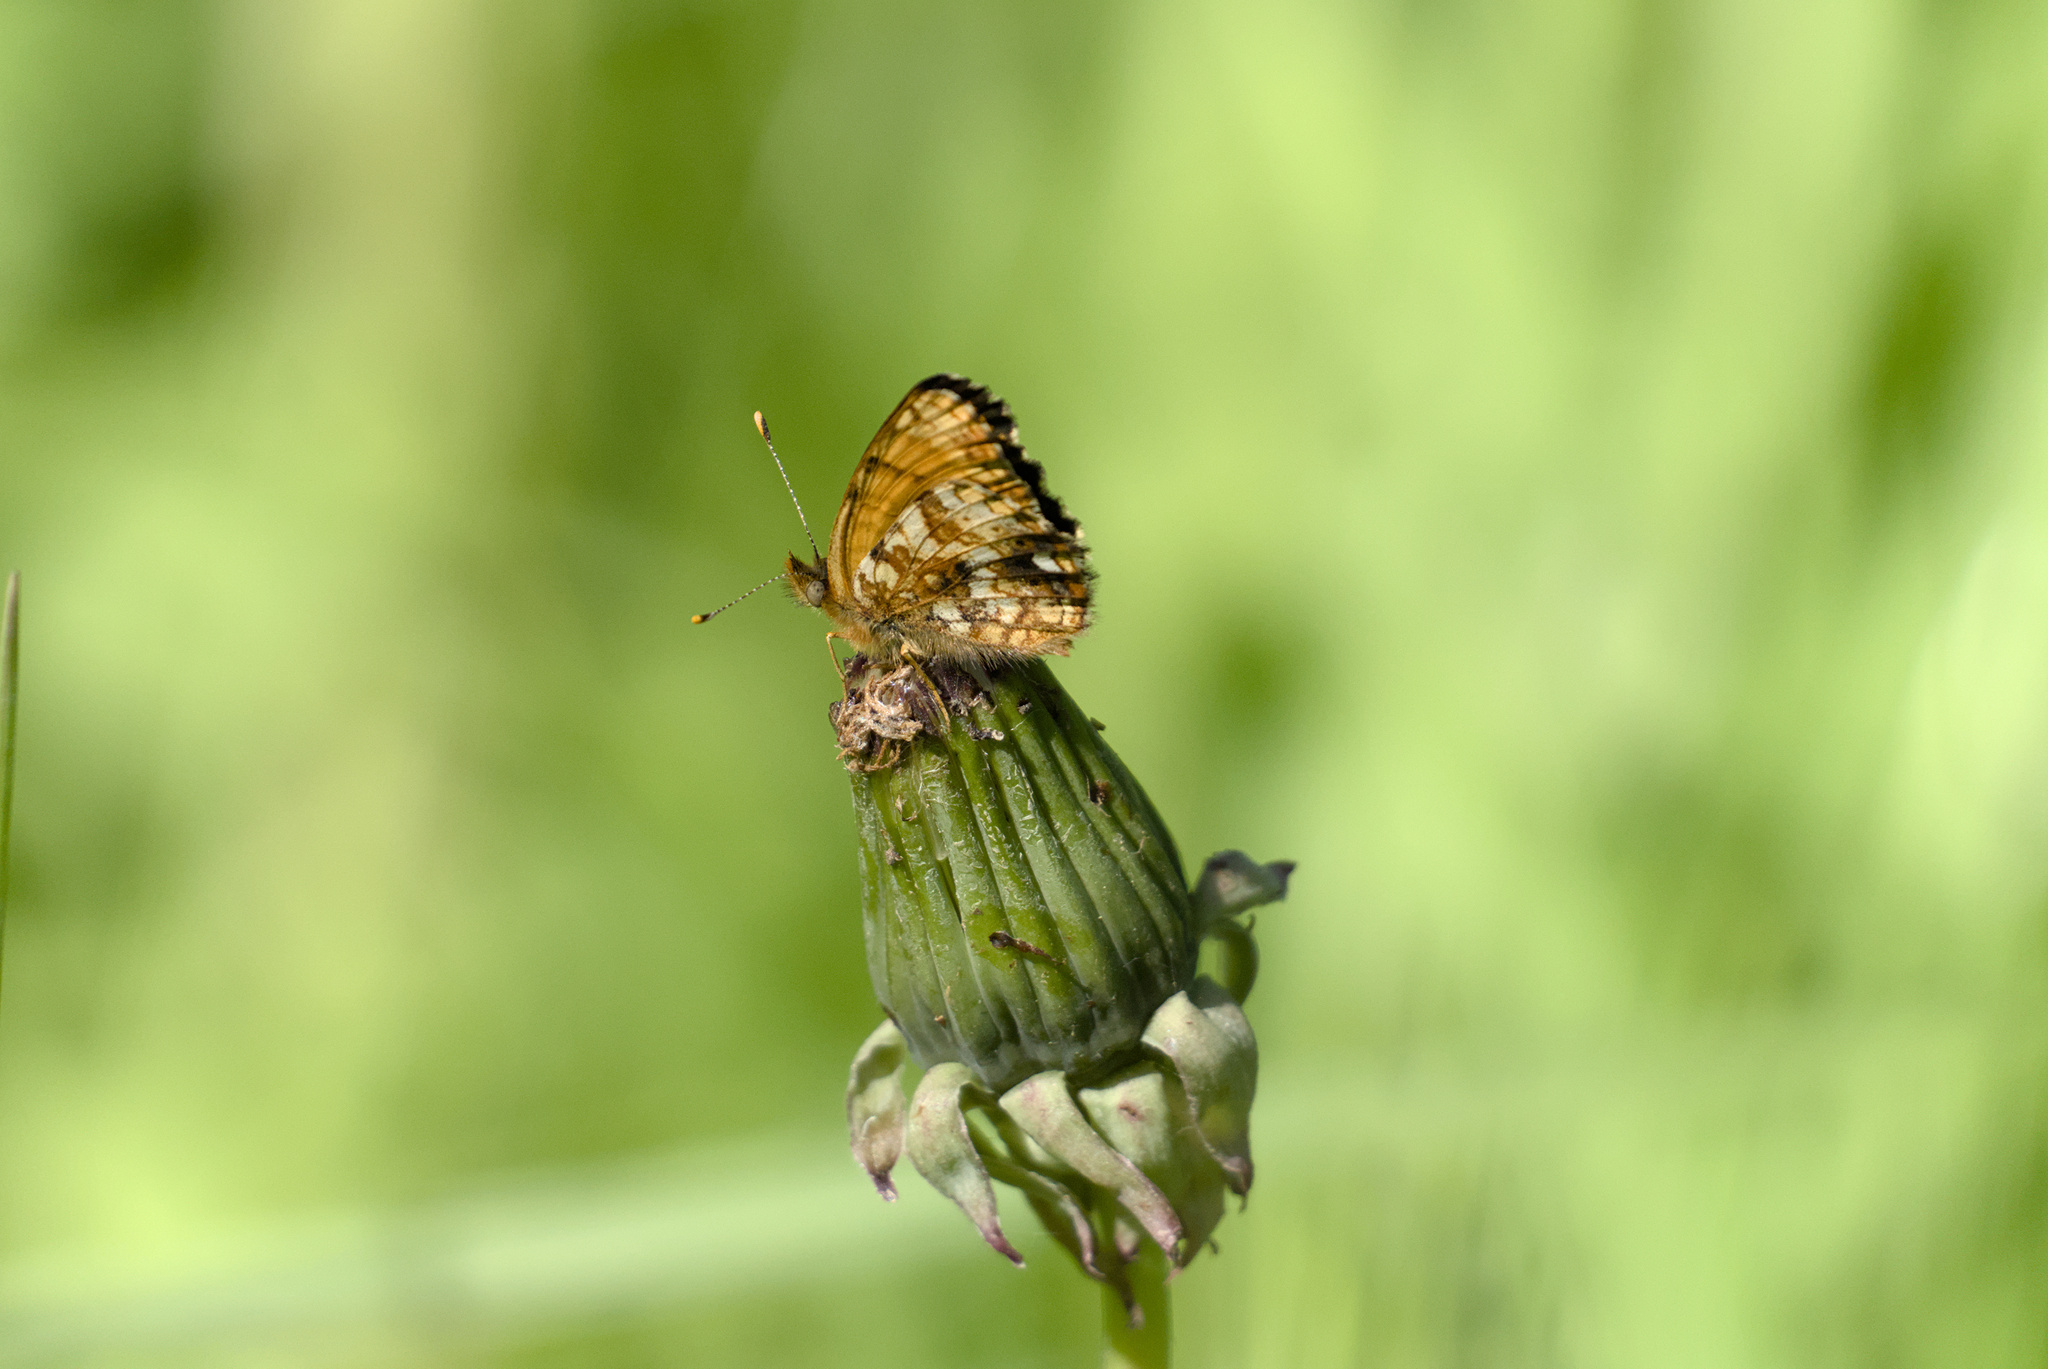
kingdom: Animalia
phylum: Arthropoda
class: Insecta
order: Lepidoptera
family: Nymphalidae
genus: Eresia
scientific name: Eresia aveyrona
